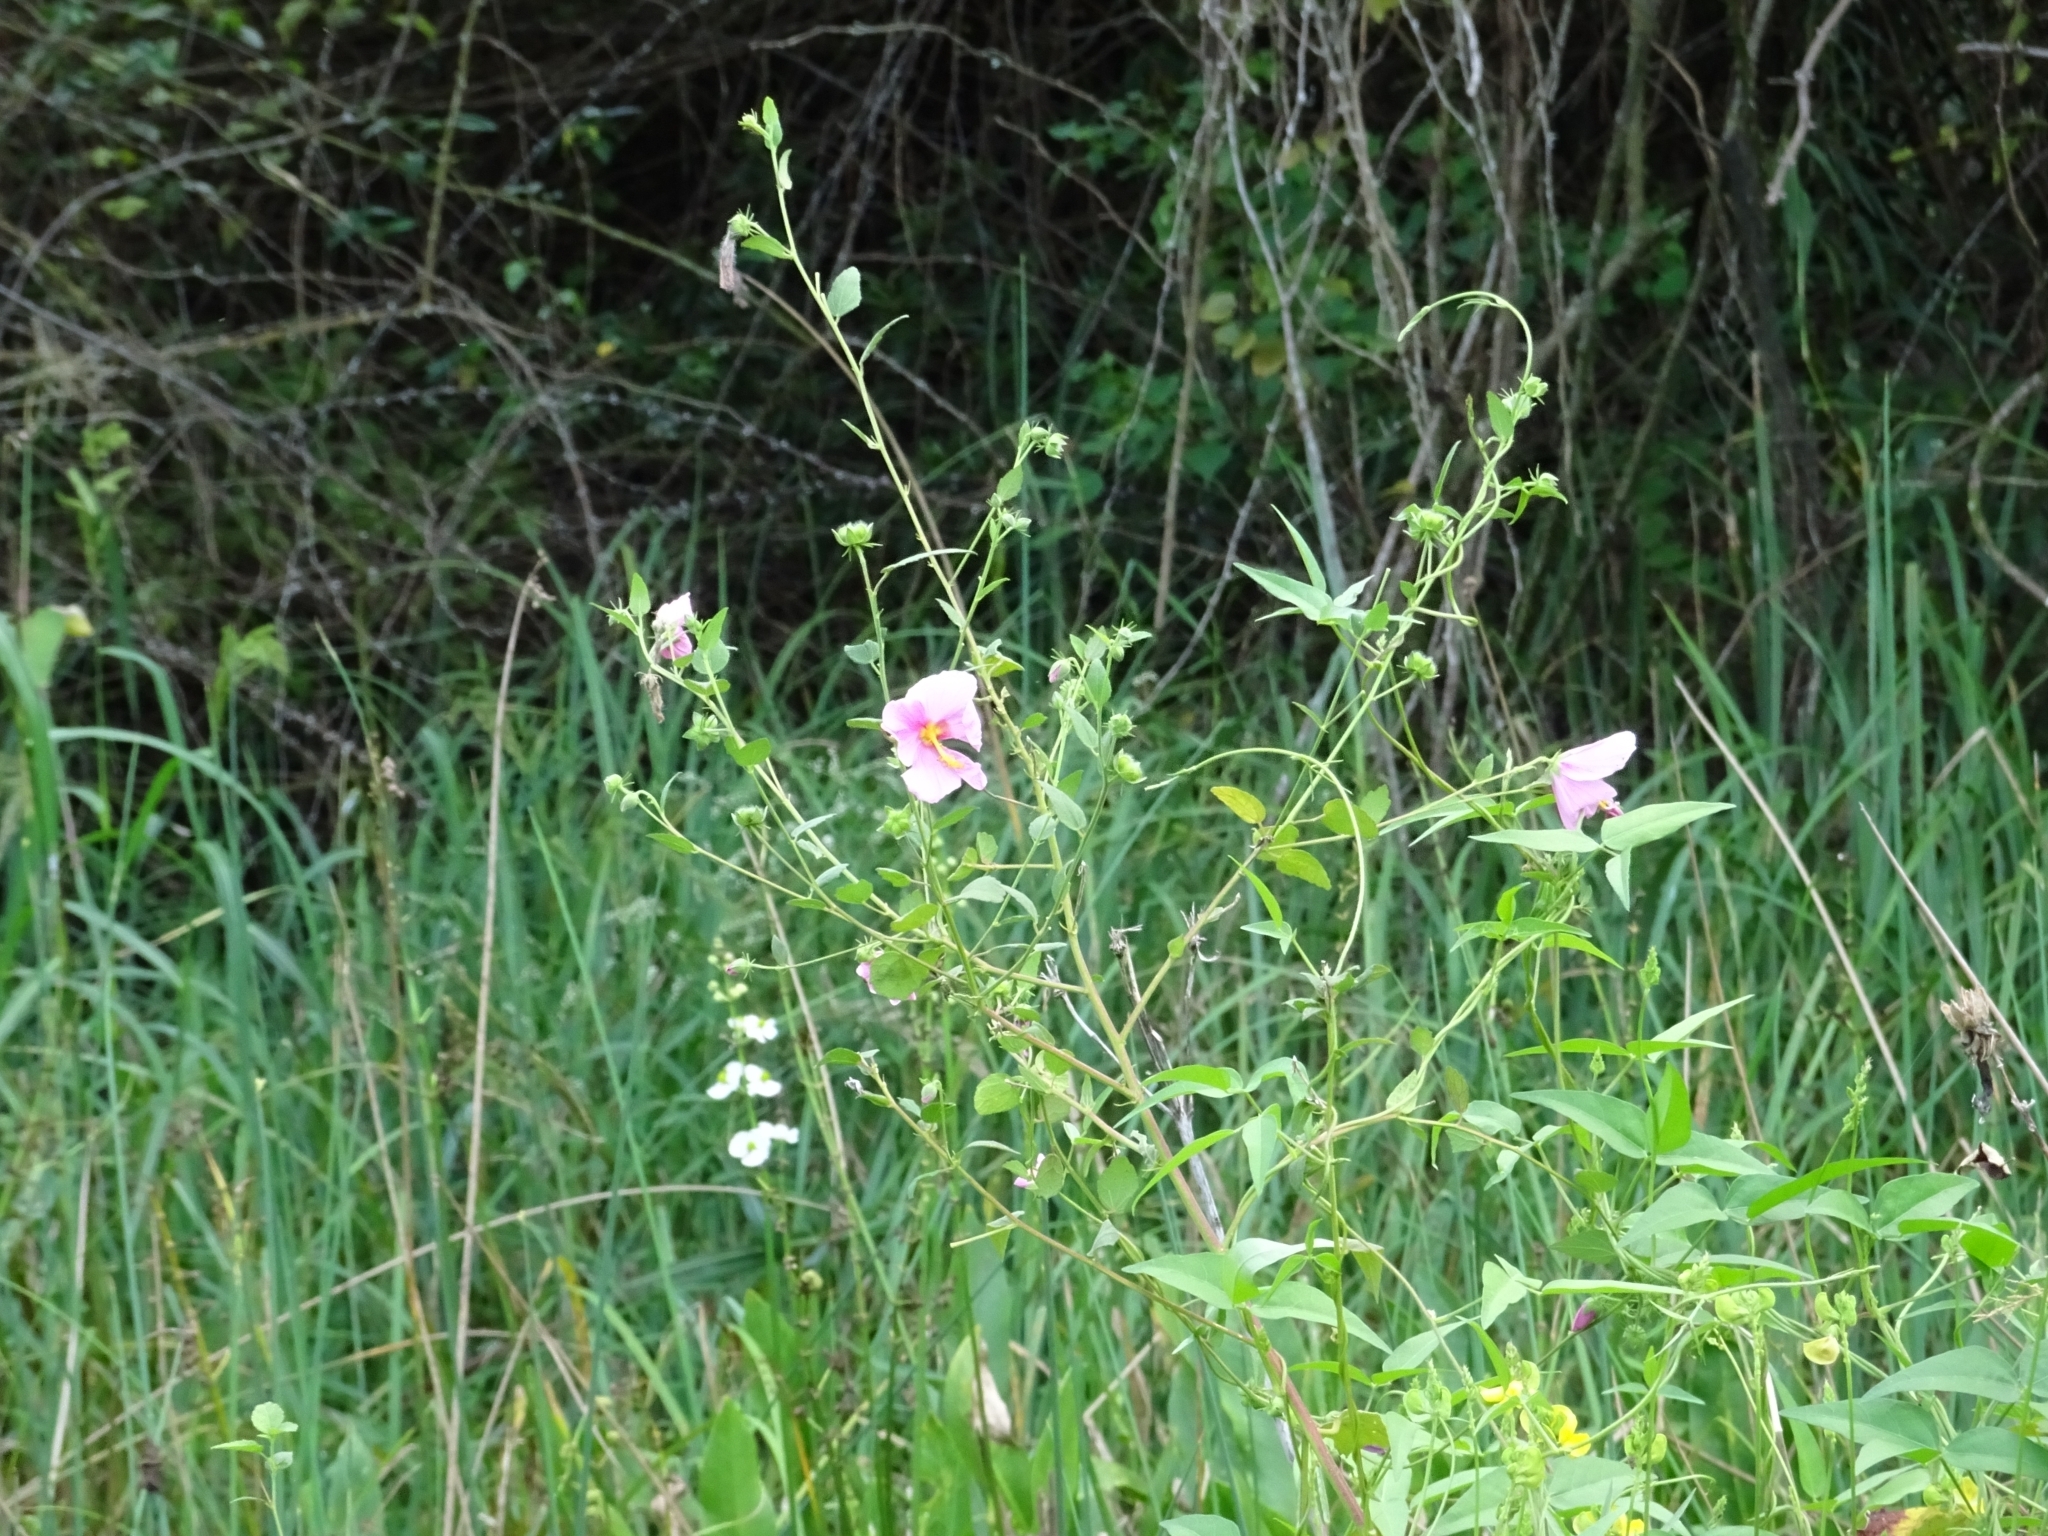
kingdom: Plantae
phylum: Tracheophyta
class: Magnoliopsida
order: Malvales
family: Malvaceae
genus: Kosteletzkya
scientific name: Kosteletzkya pentacarpos
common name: Virginia saltmarsh mallow
